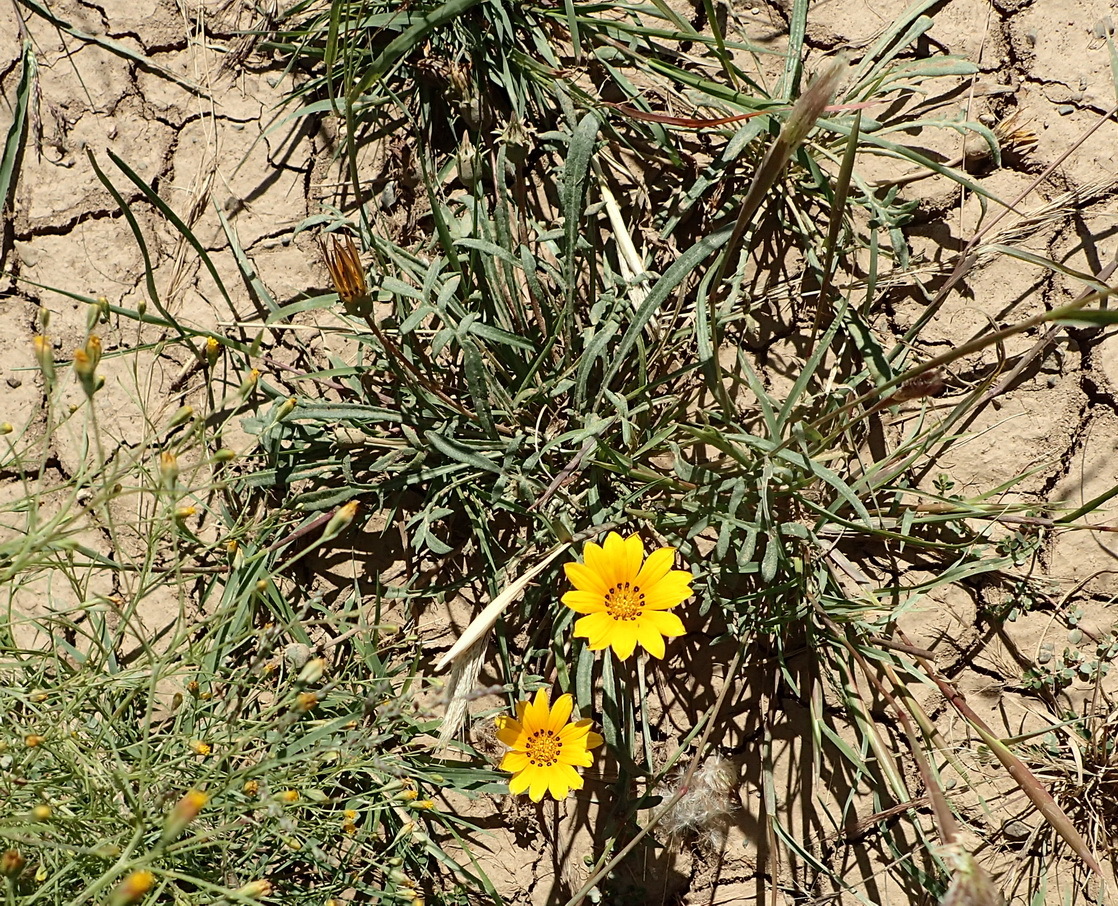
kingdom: Plantae
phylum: Tracheophyta
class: Magnoliopsida
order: Asterales
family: Asteraceae
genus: Gazania
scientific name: Gazania krebsiana
